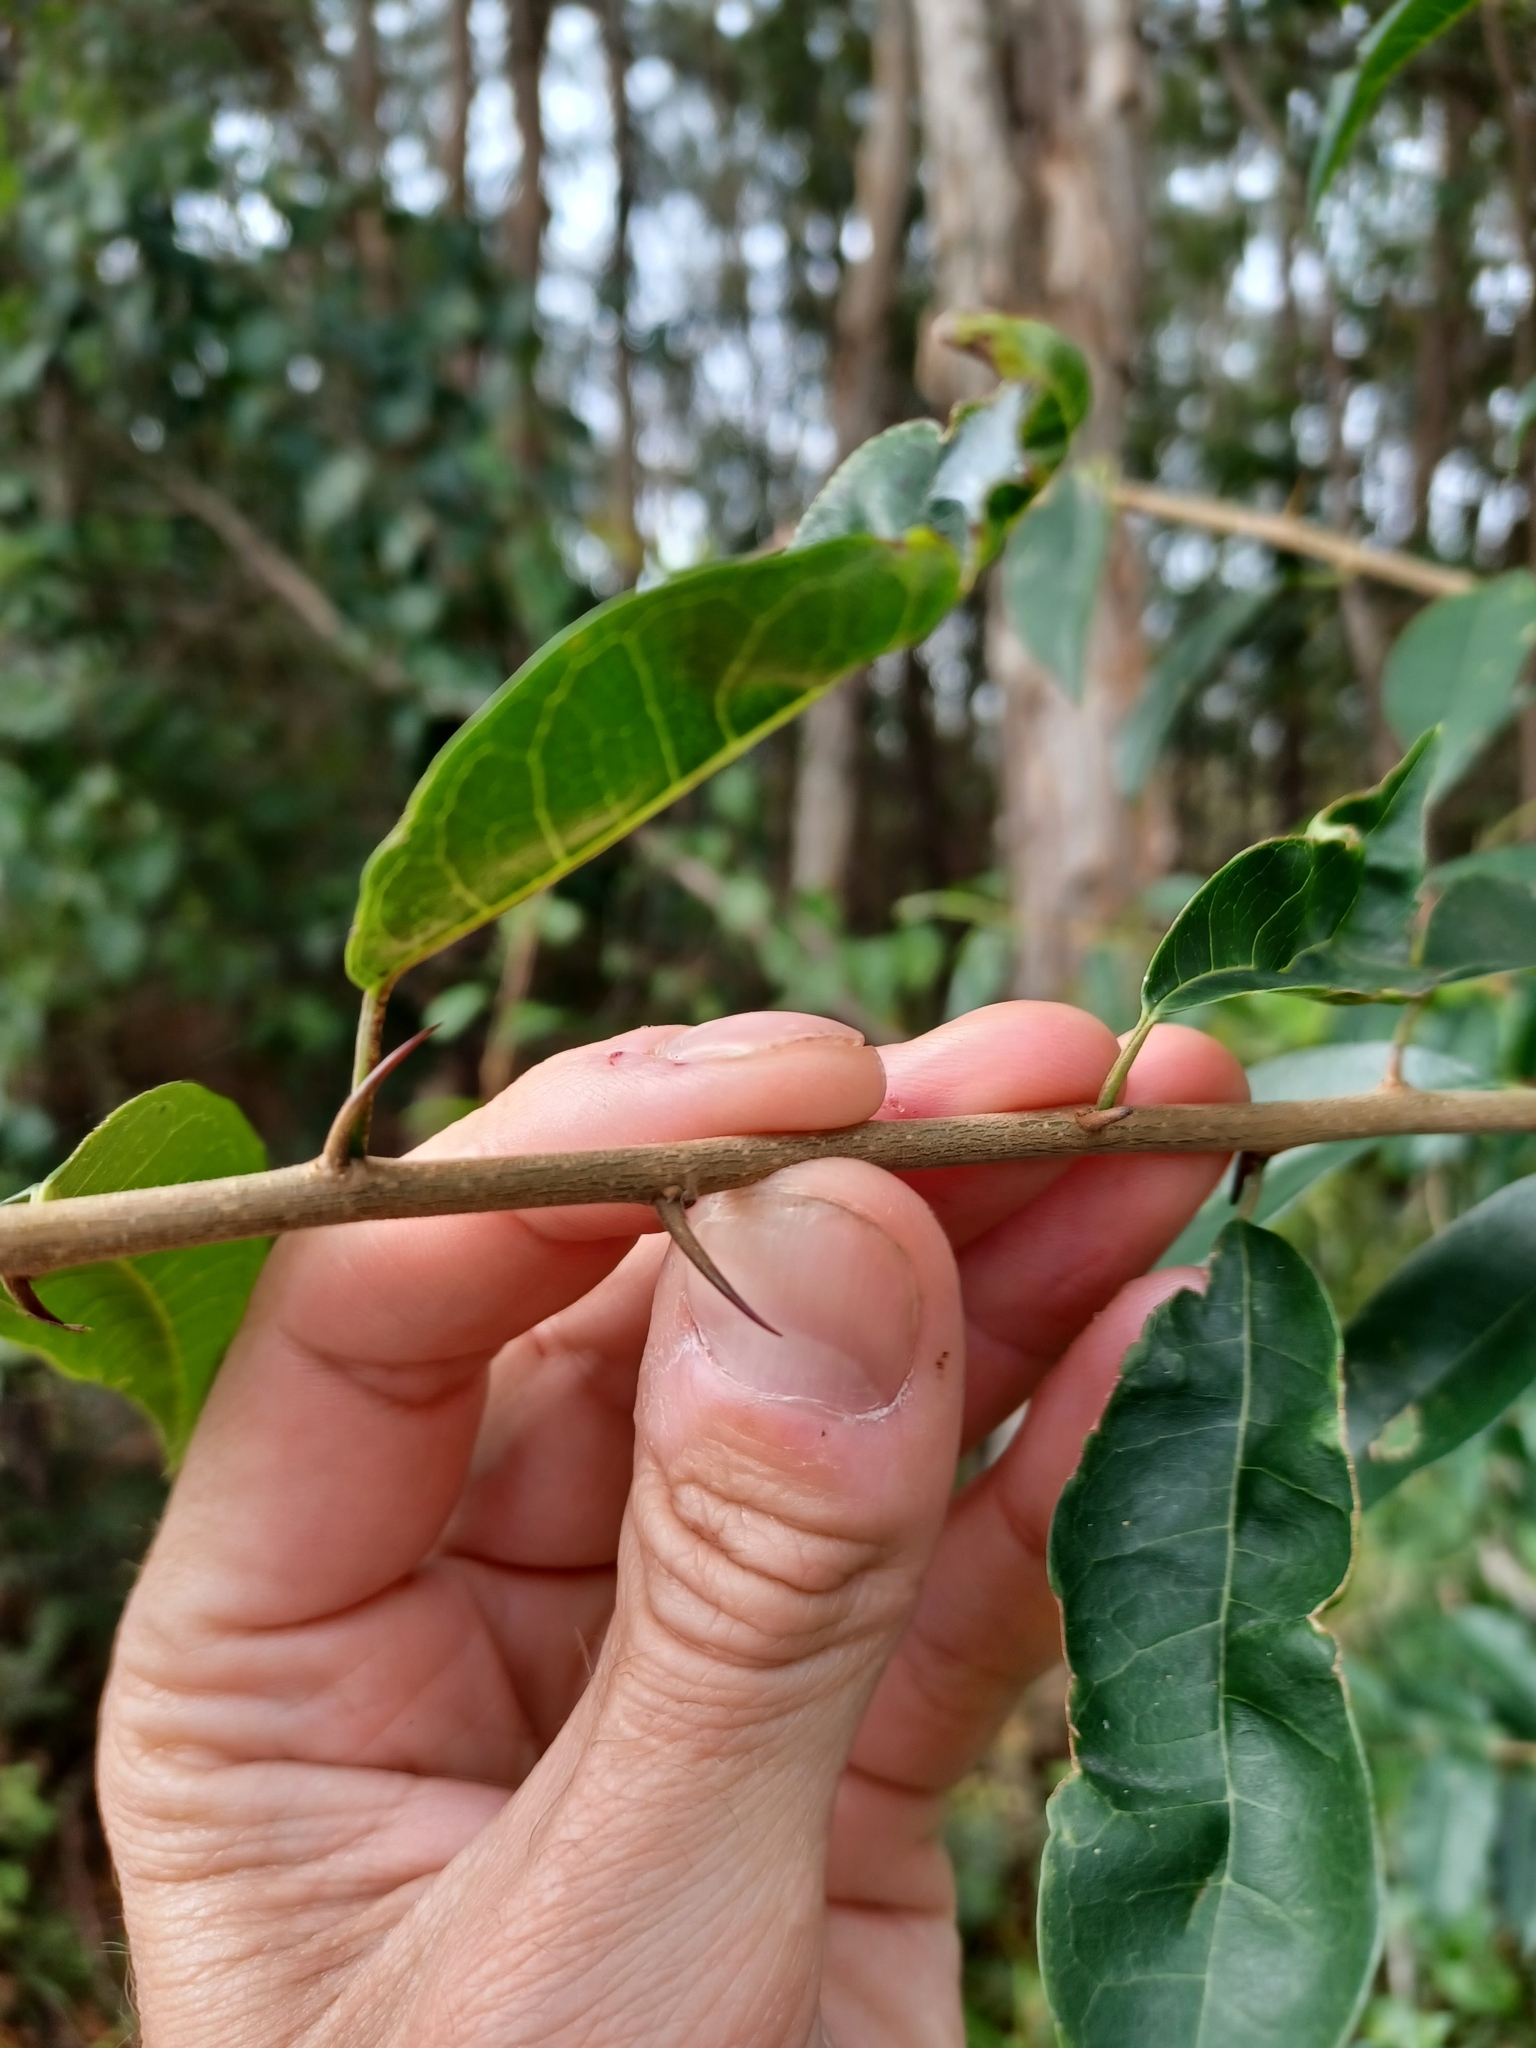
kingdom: Plantae
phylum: Tracheophyta
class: Magnoliopsida
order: Rosales
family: Moraceae
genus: Maclura
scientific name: Maclura cochinchinensis
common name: Cockspurthorn
